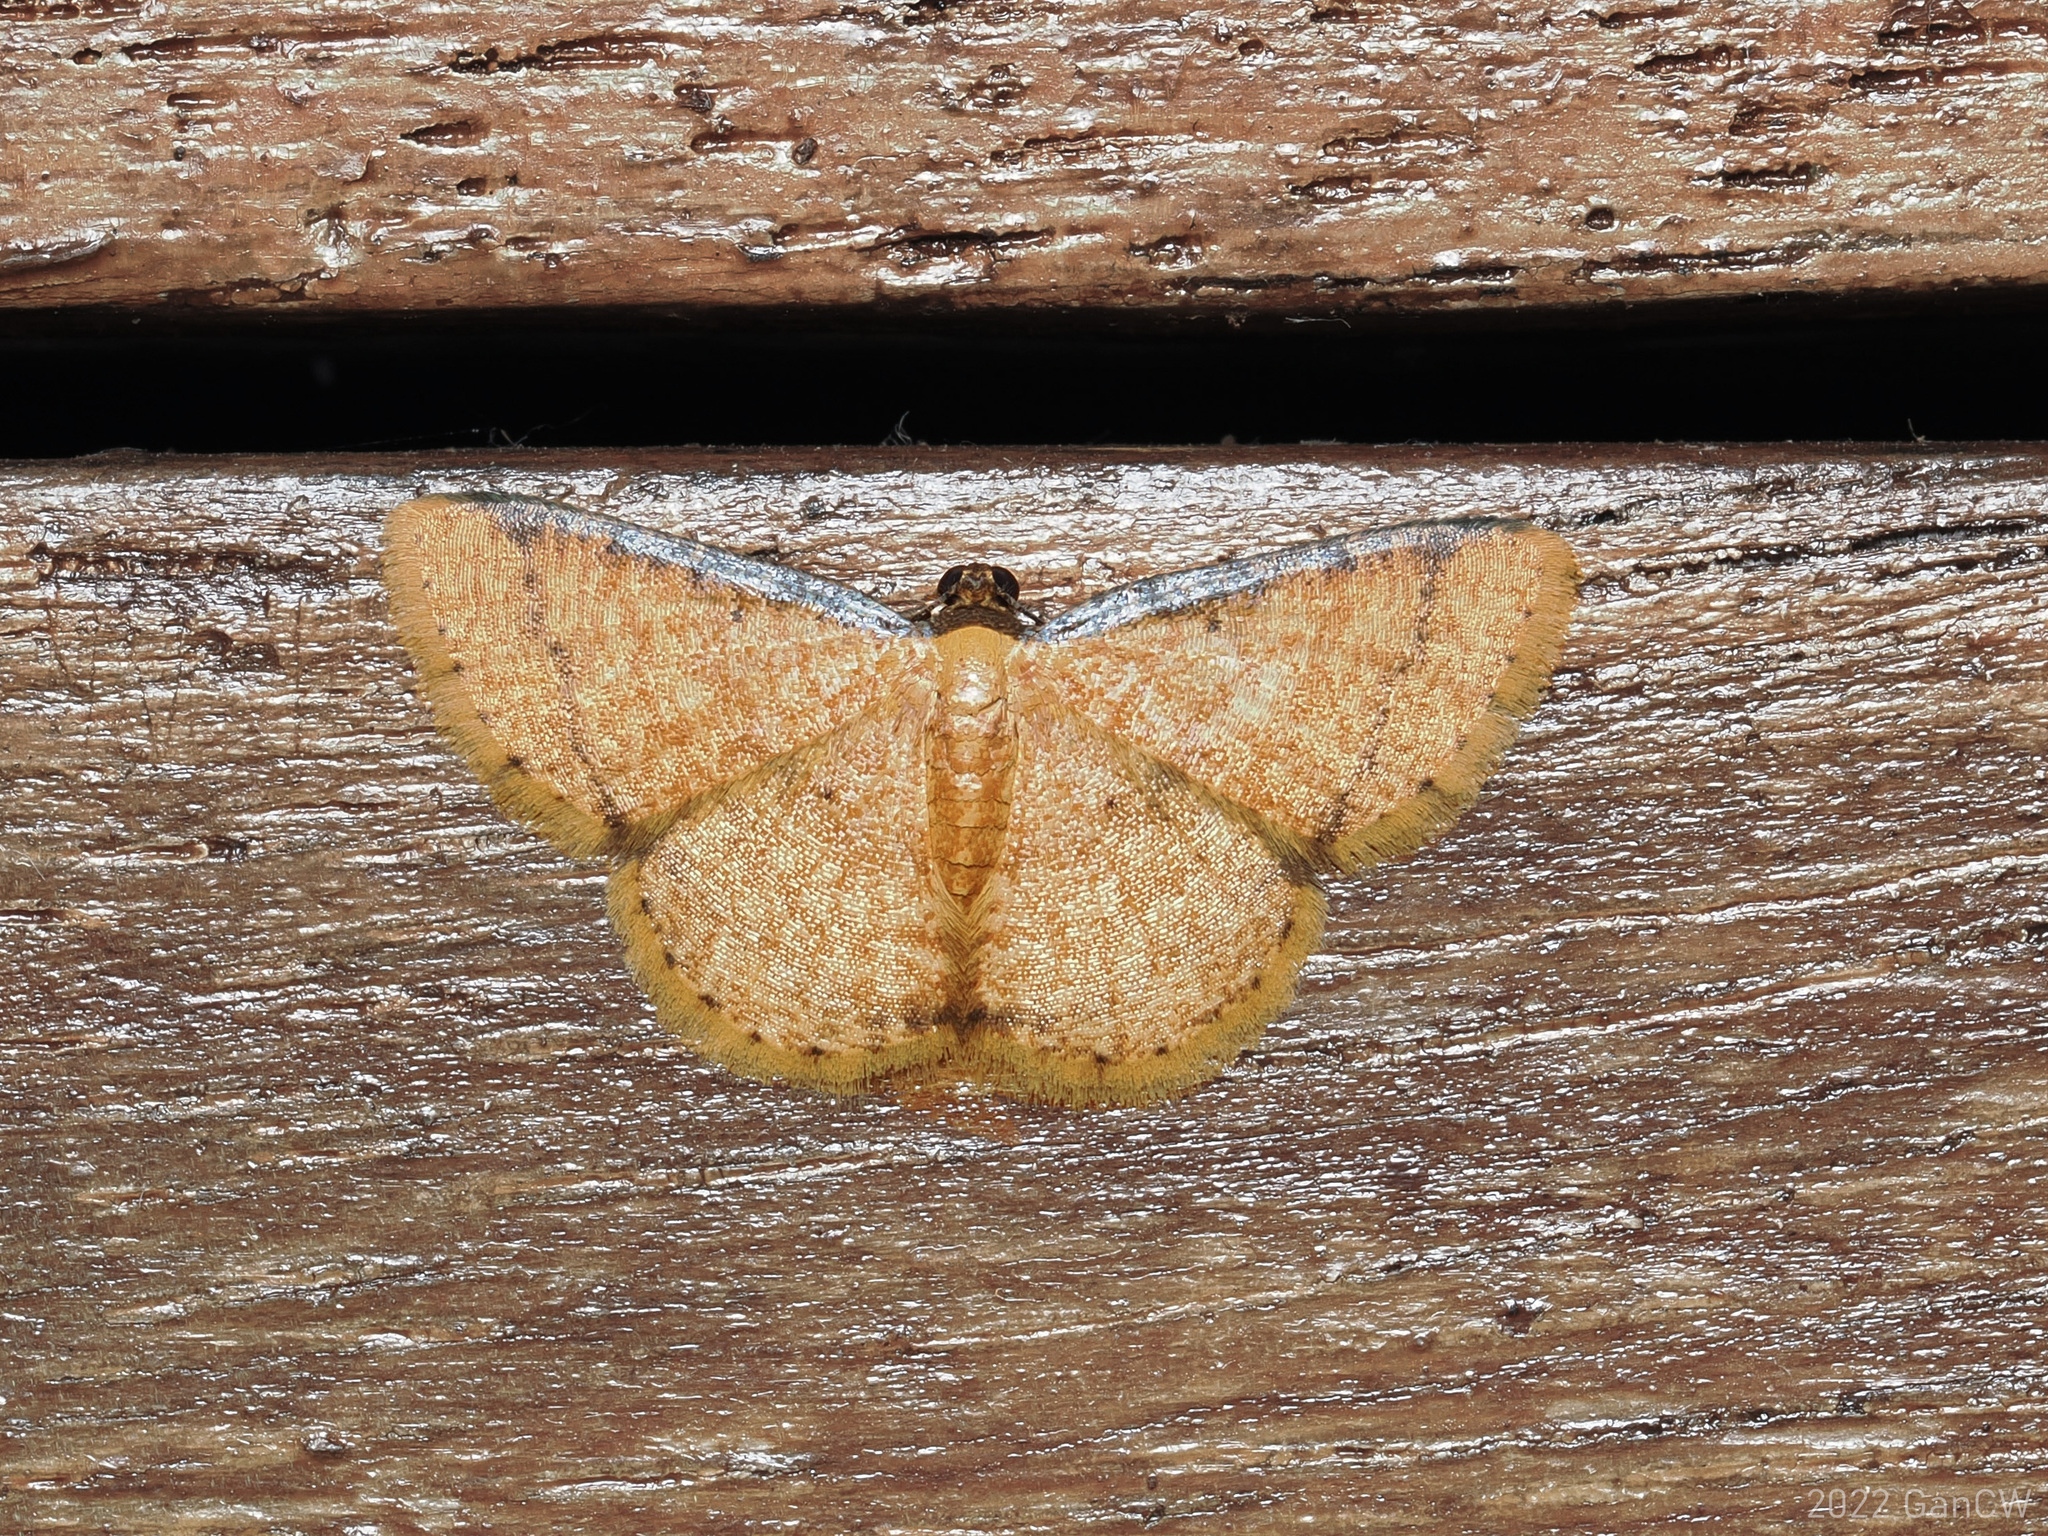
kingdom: Animalia
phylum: Arthropoda
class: Insecta
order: Lepidoptera
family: Geometridae
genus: Heterostegane
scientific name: Heterostegane subfasciata
